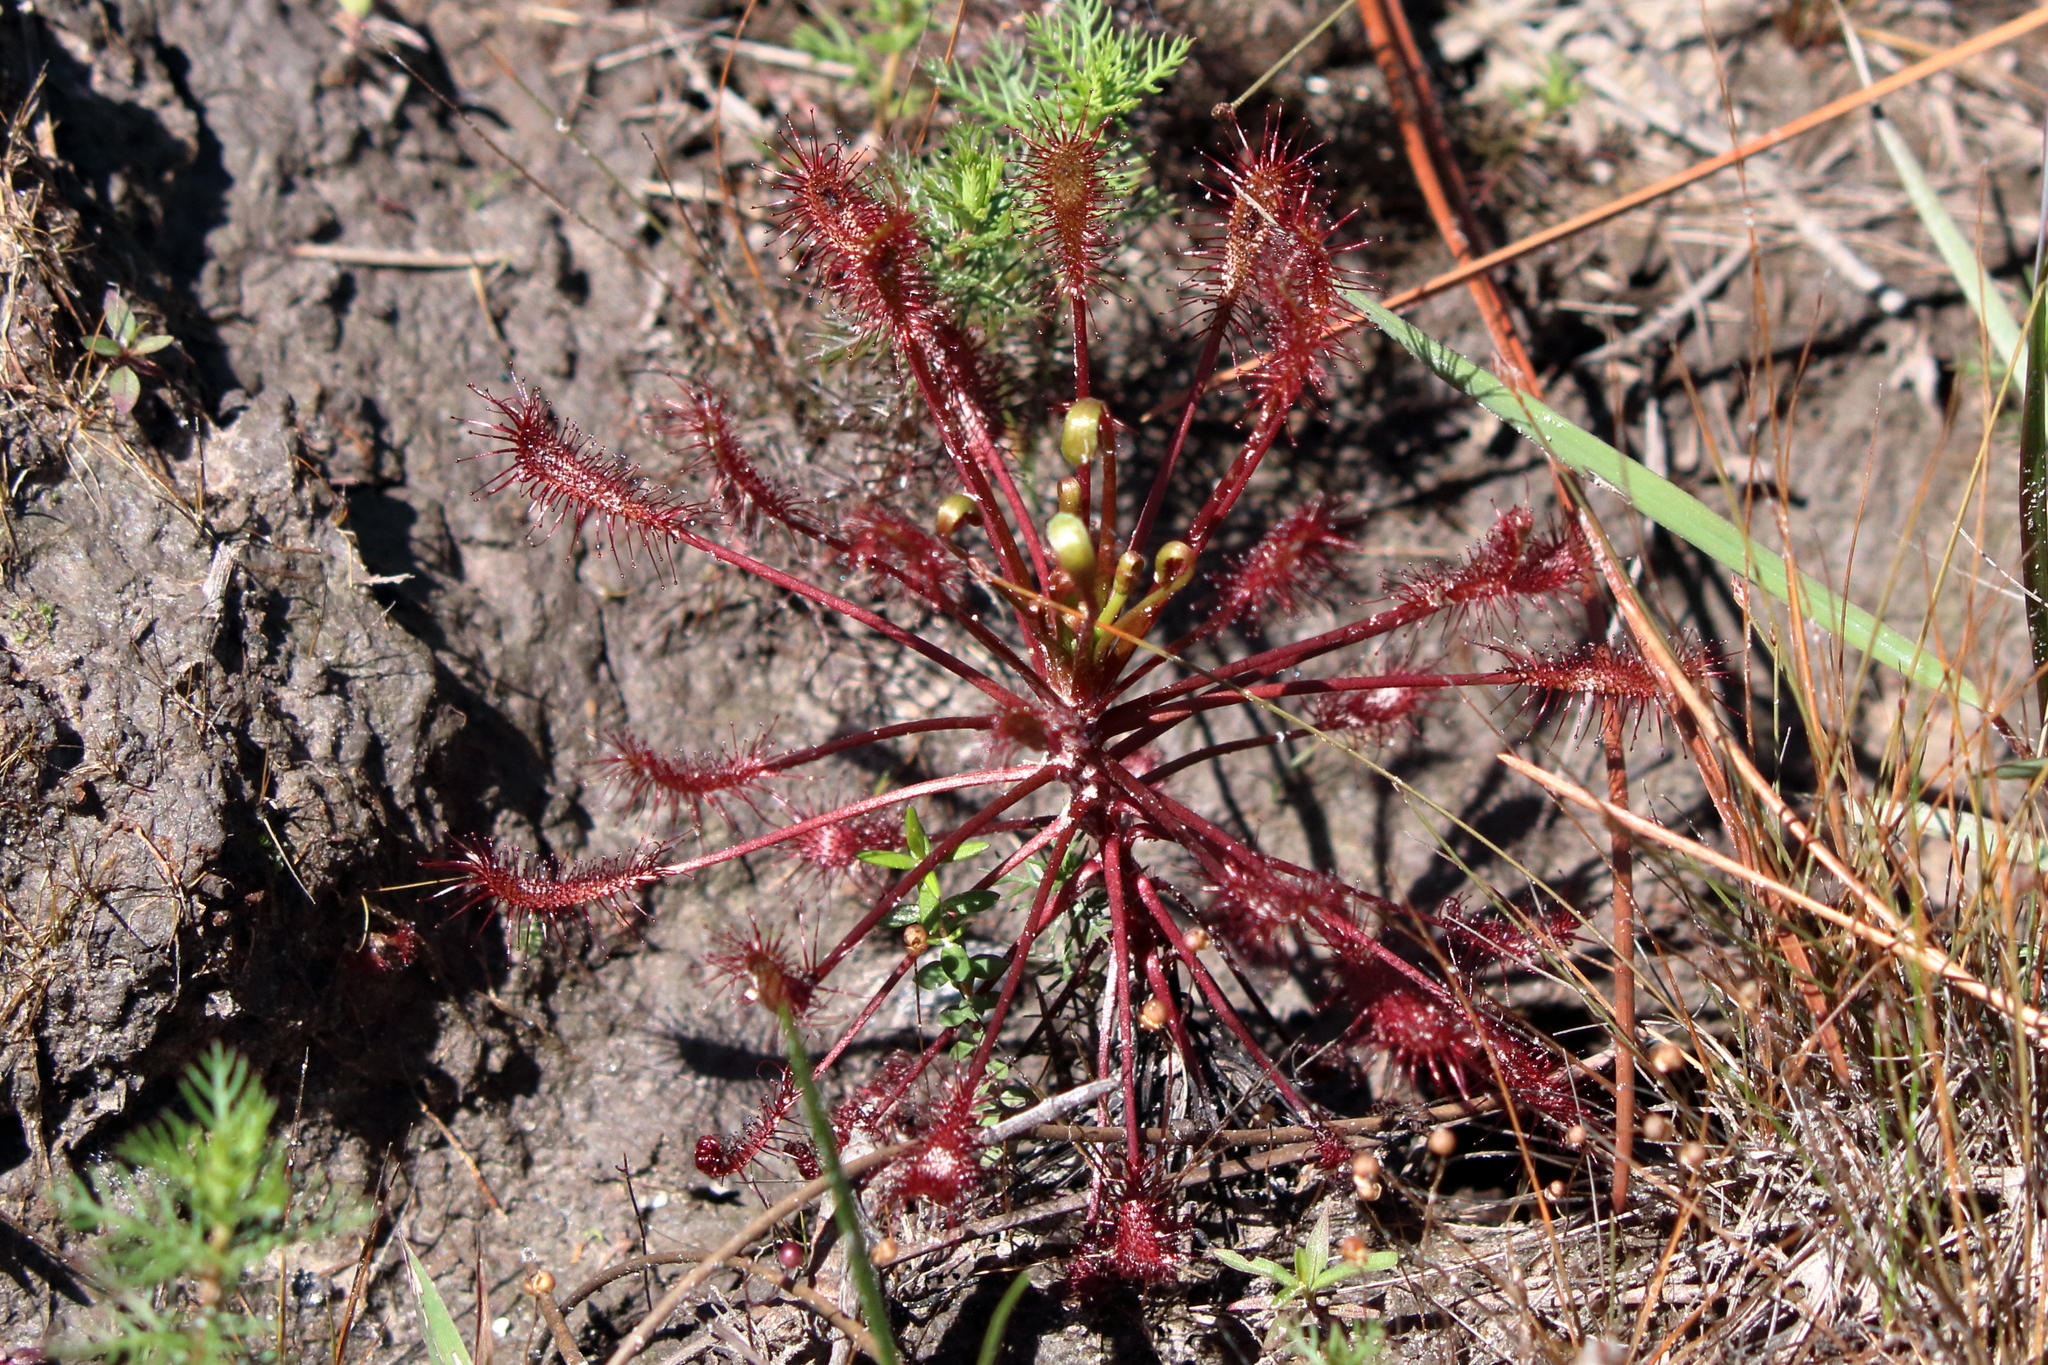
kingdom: Plantae
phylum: Tracheophyta
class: Magnoliopsida
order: Caryophyllales
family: Droseraceae
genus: Drosera
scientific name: Drosera intermedia
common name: Oblong-leaved sundew
